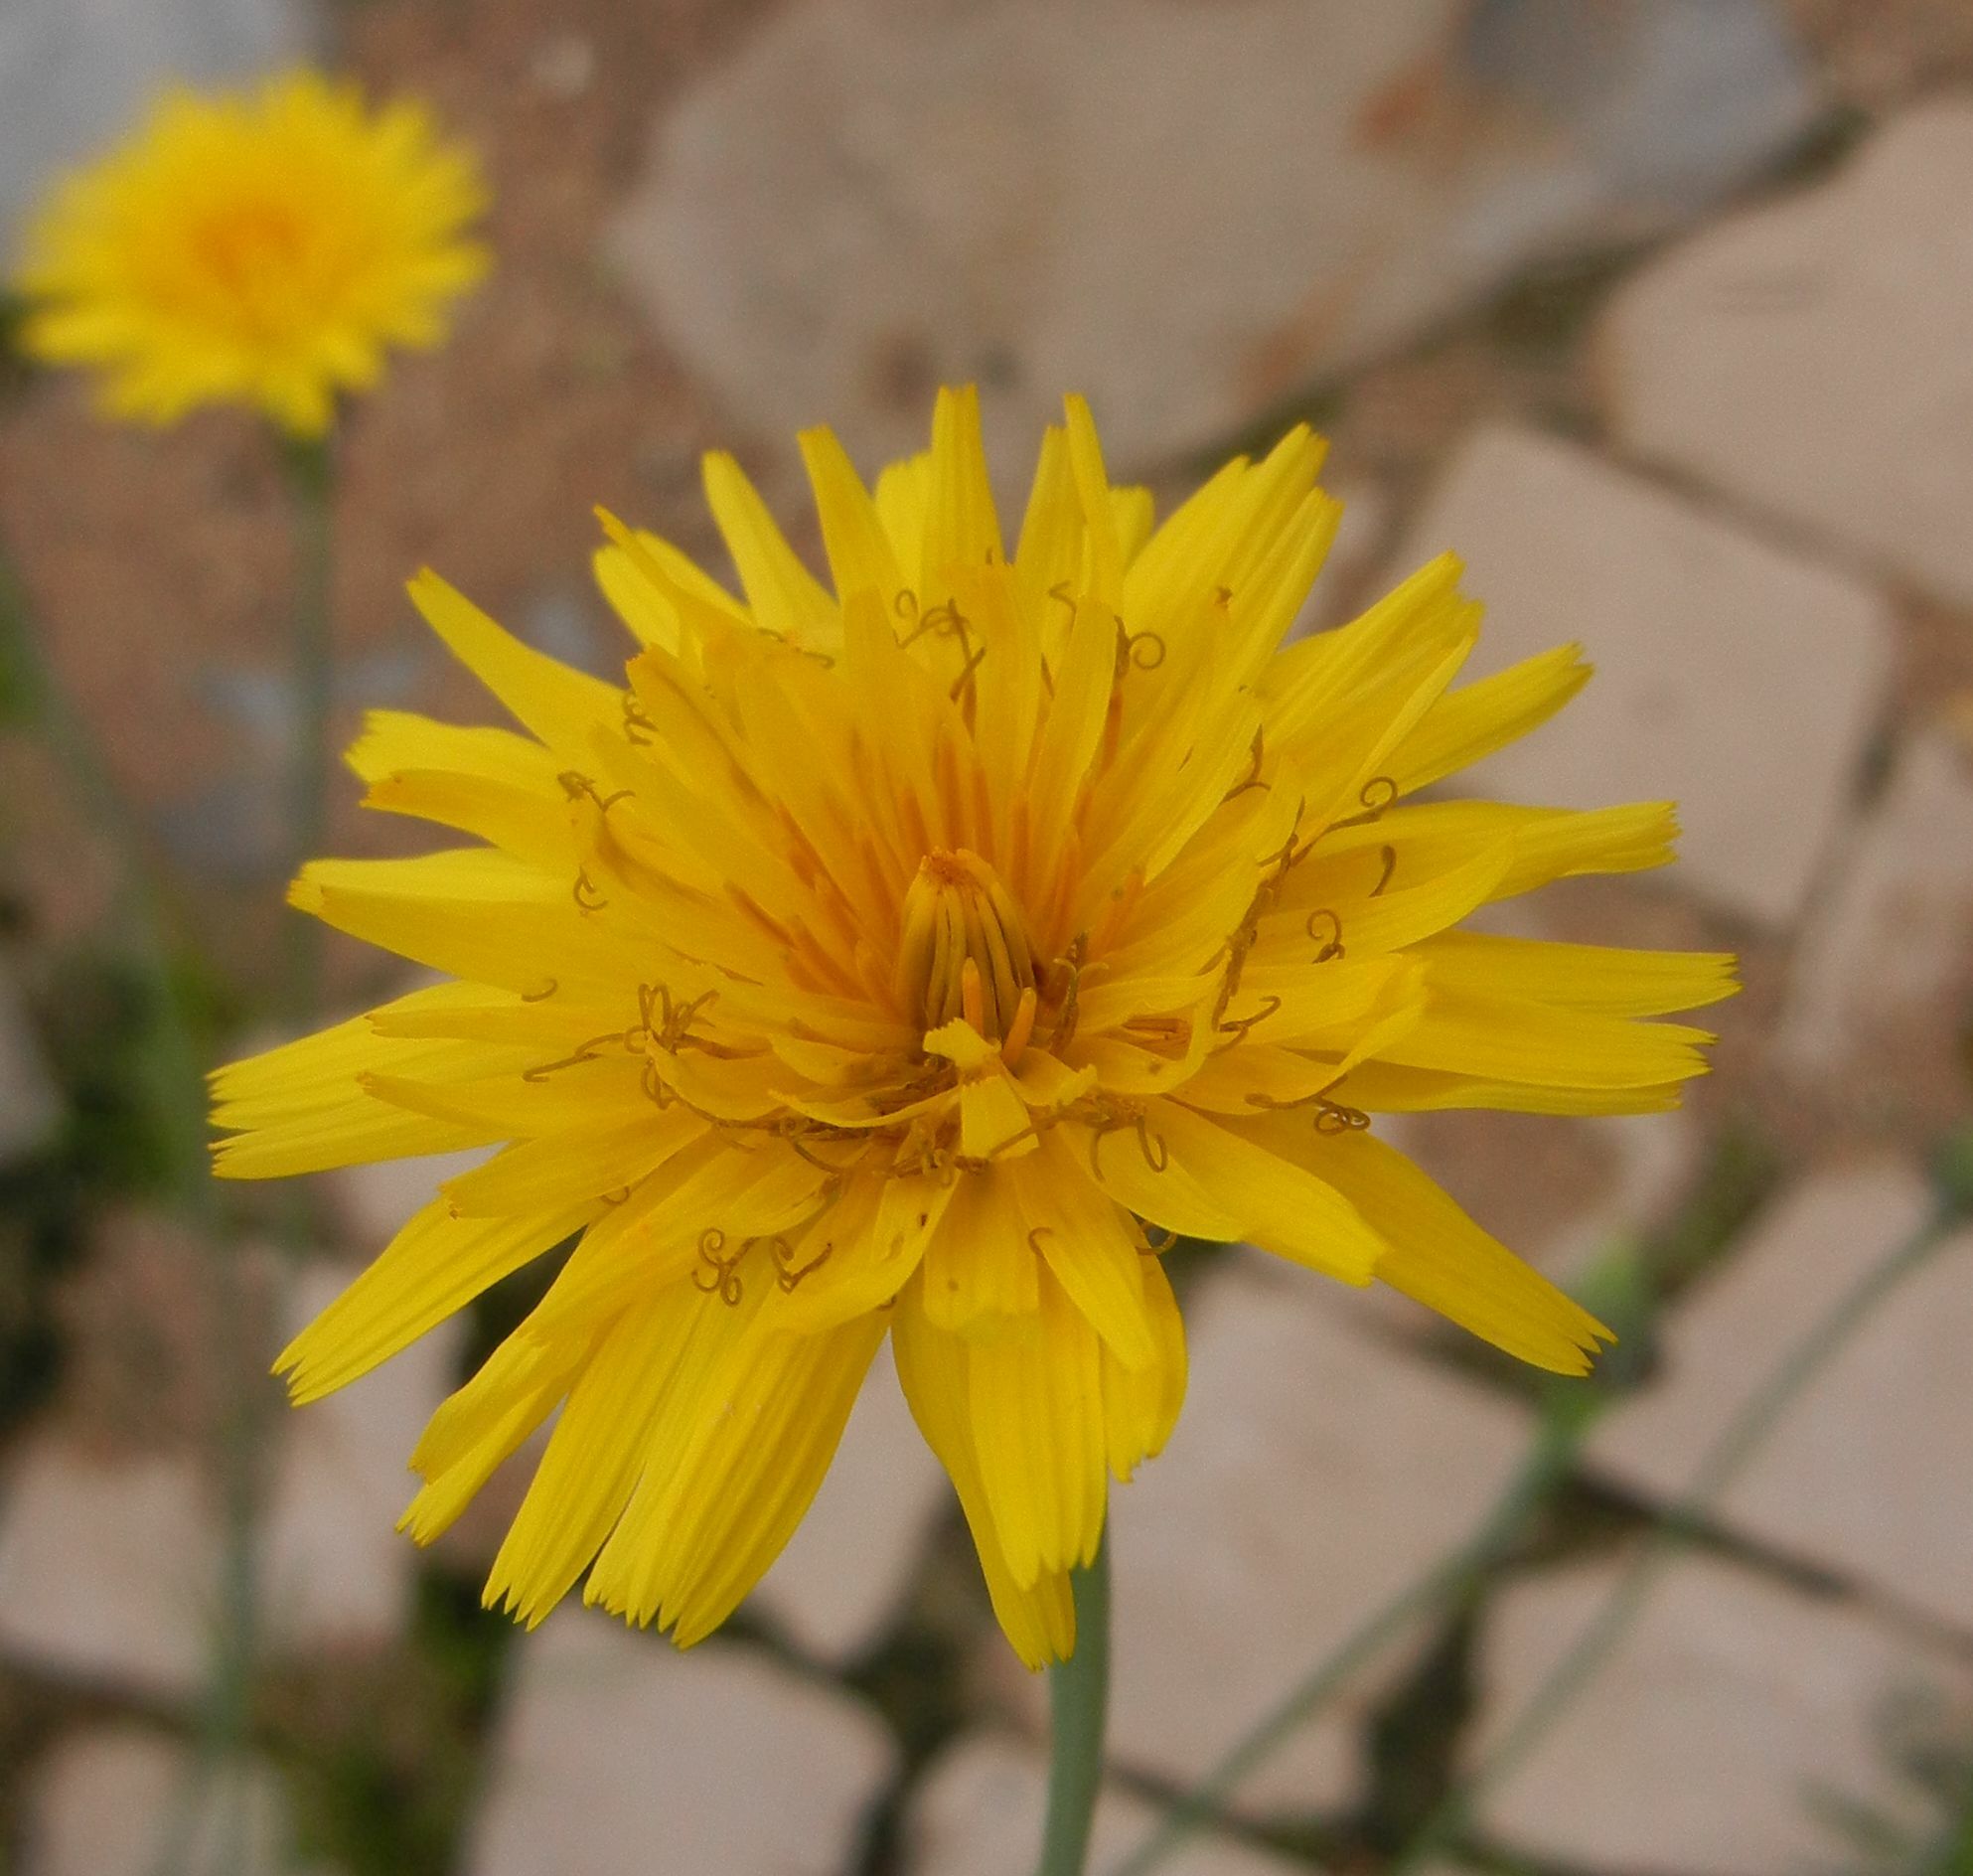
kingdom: Plantae
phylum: Tracheophyta
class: Magnoliopsida
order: Asterales
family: Asteraceae
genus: Reichardia
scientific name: Reichardia picroides
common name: Common brighteyes
